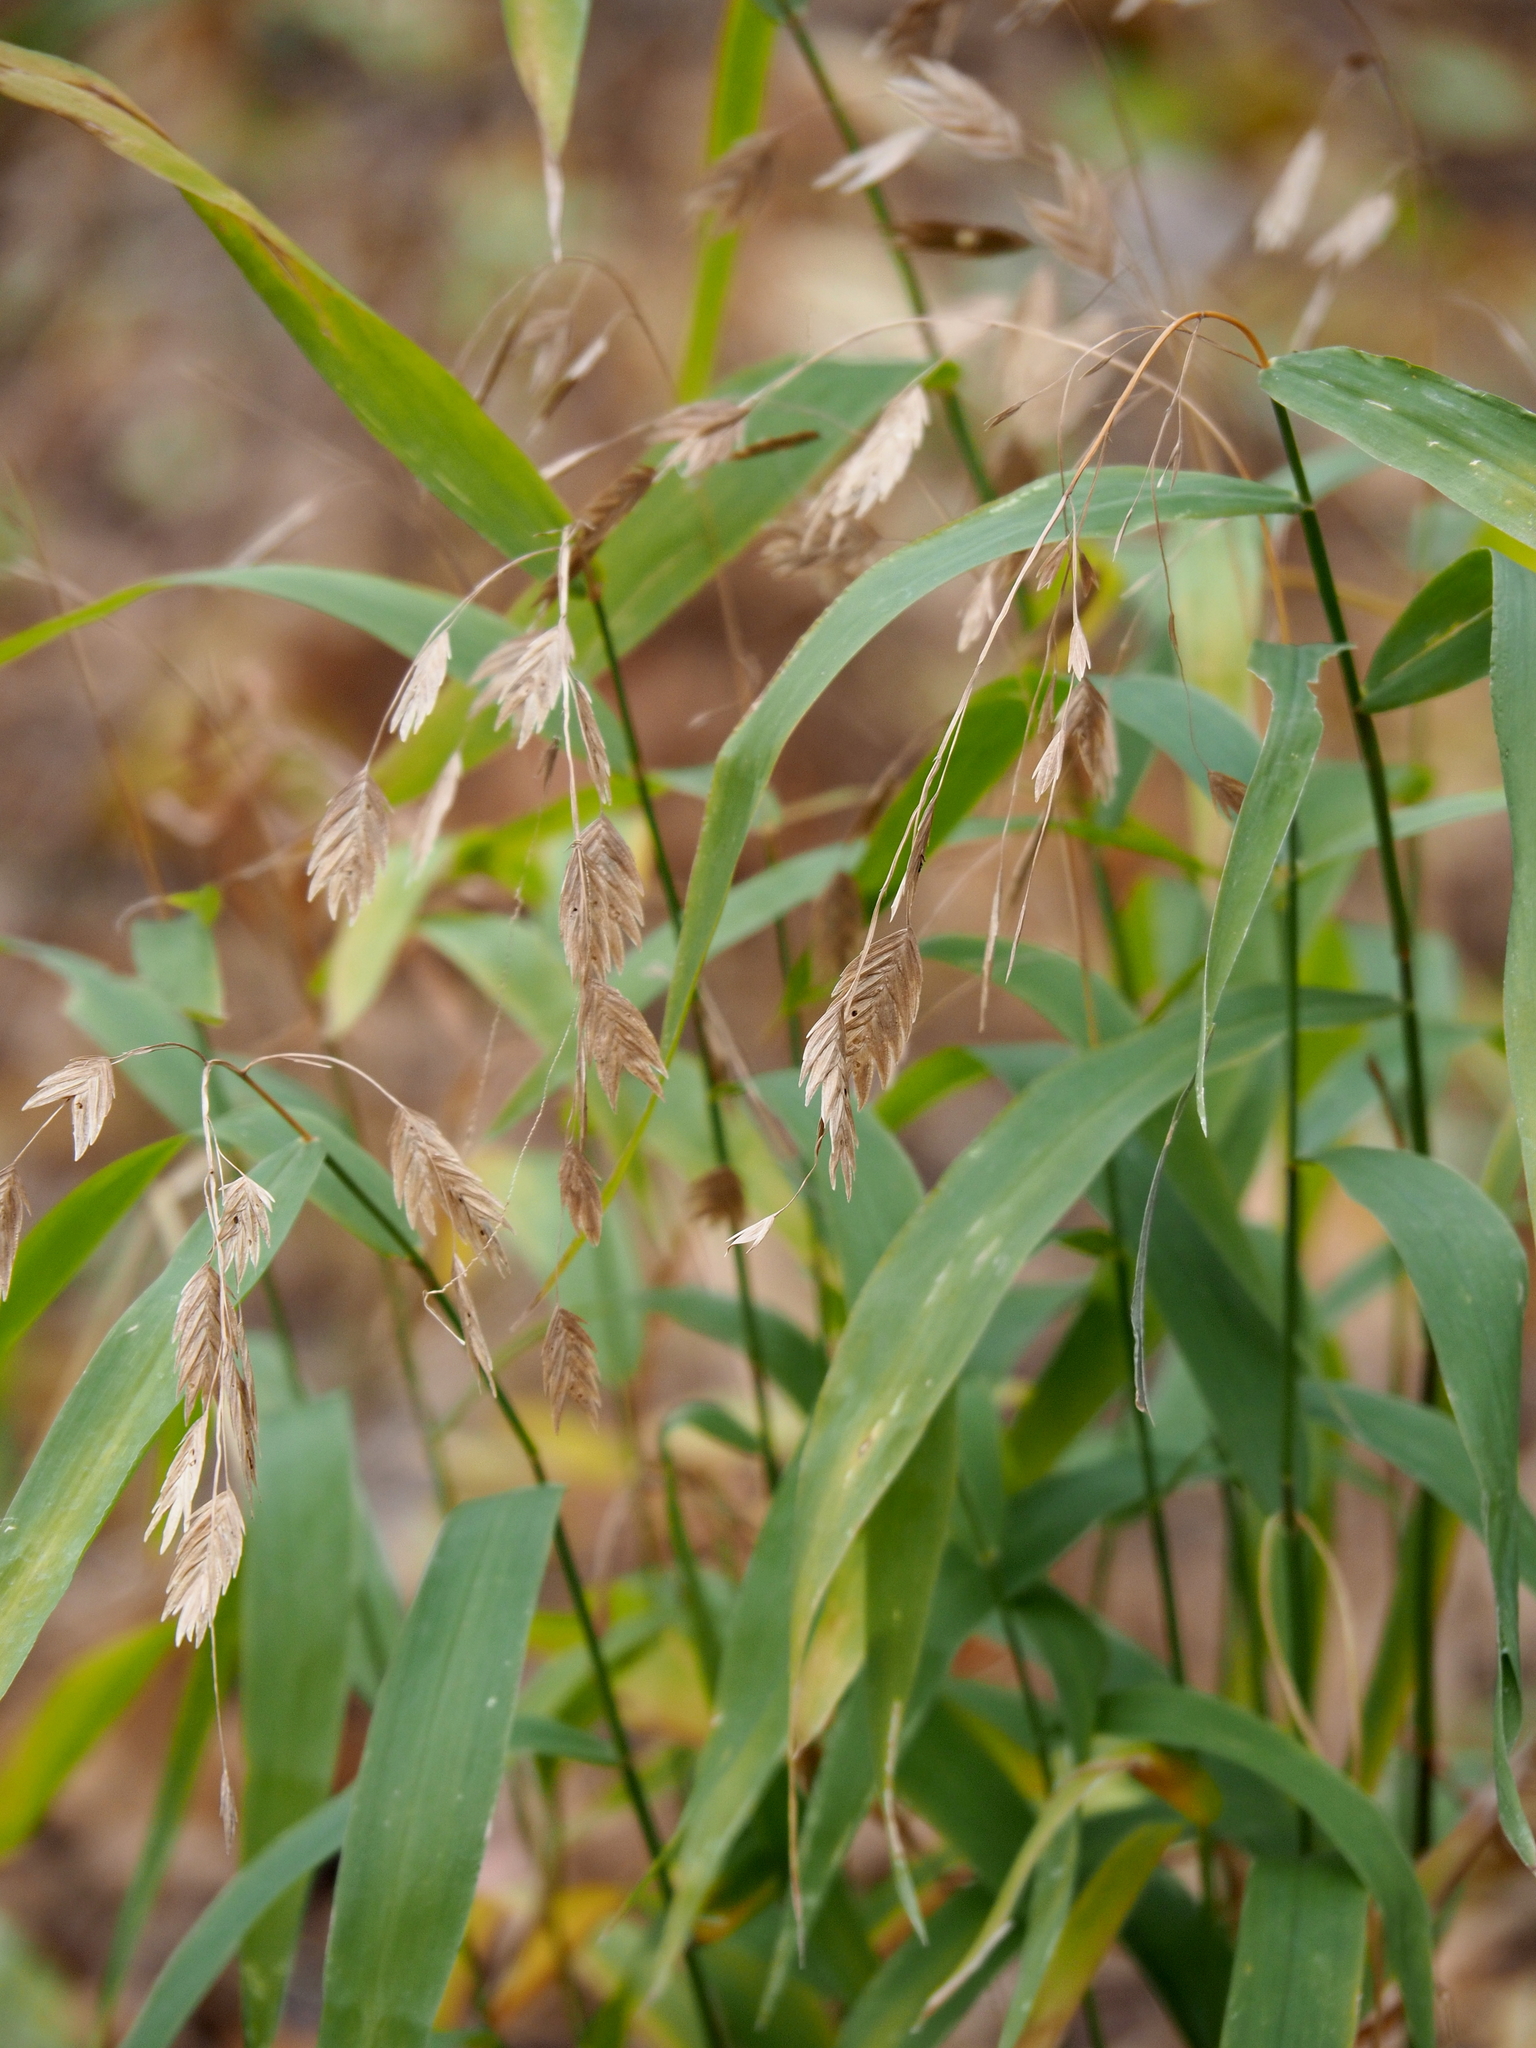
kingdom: Plantae
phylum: Tracheophyta
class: Liliopsida
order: Poales
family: Poaceae
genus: Chasmanthium
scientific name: Chasmanthium latifolium
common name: Broad-leaved chasmanthium
